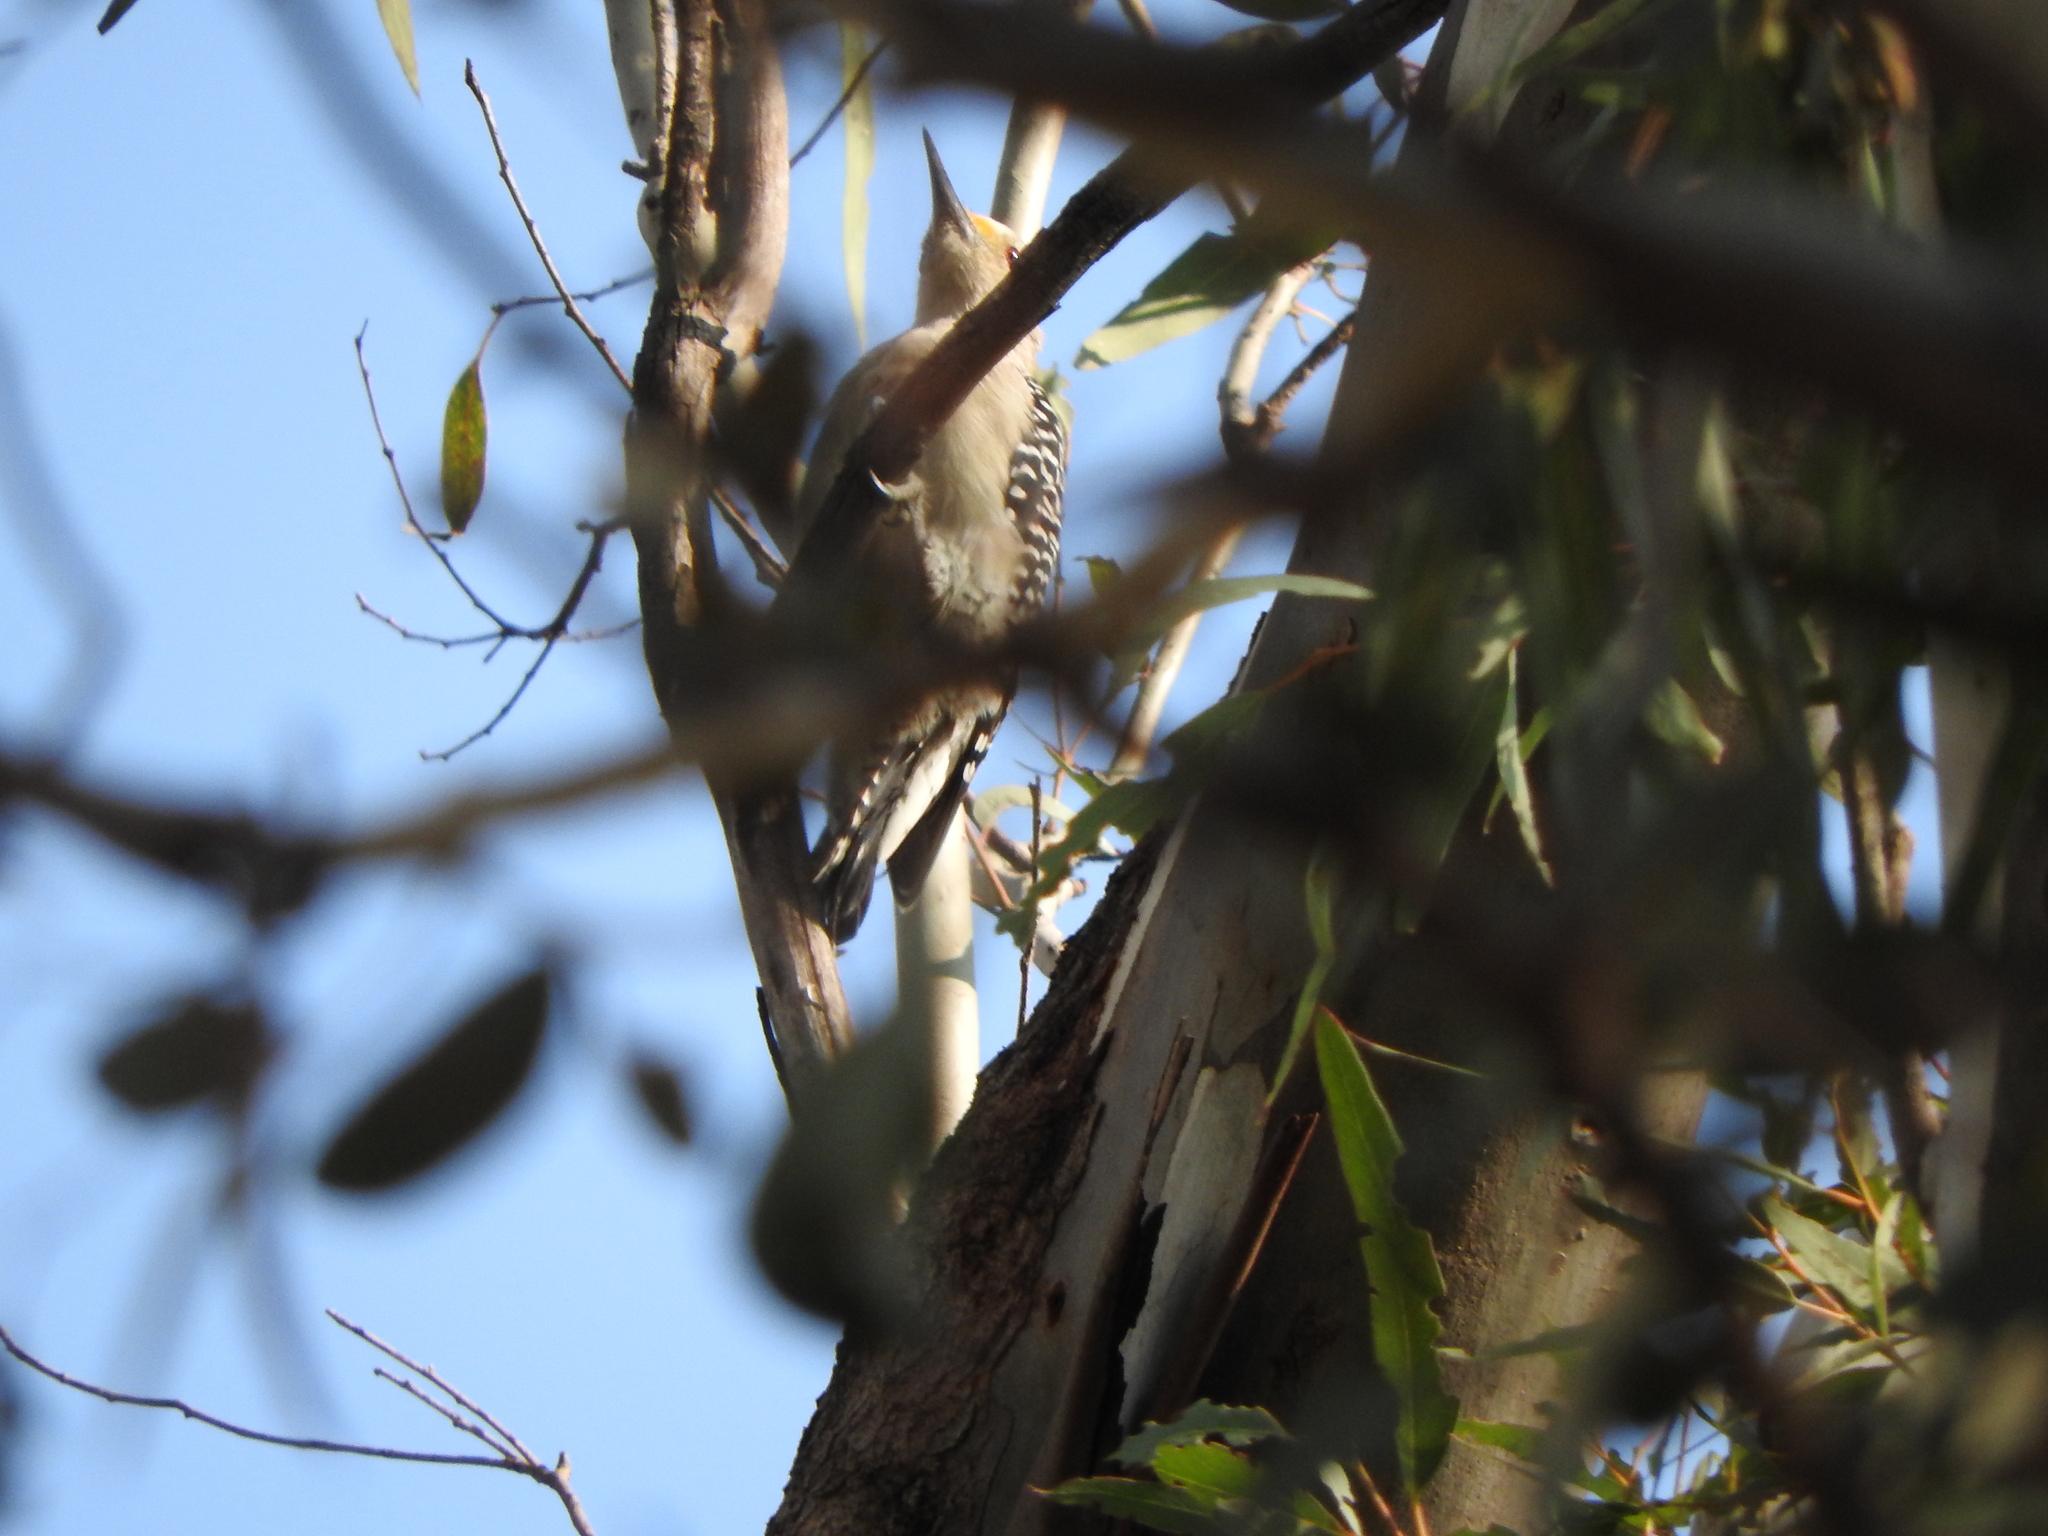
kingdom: Animalia
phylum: Chordata
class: Aves
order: Piciformes
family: Picidae
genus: Melanerpes
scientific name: Melanerpes aurifrons
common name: Golden-fronted woodpecker
